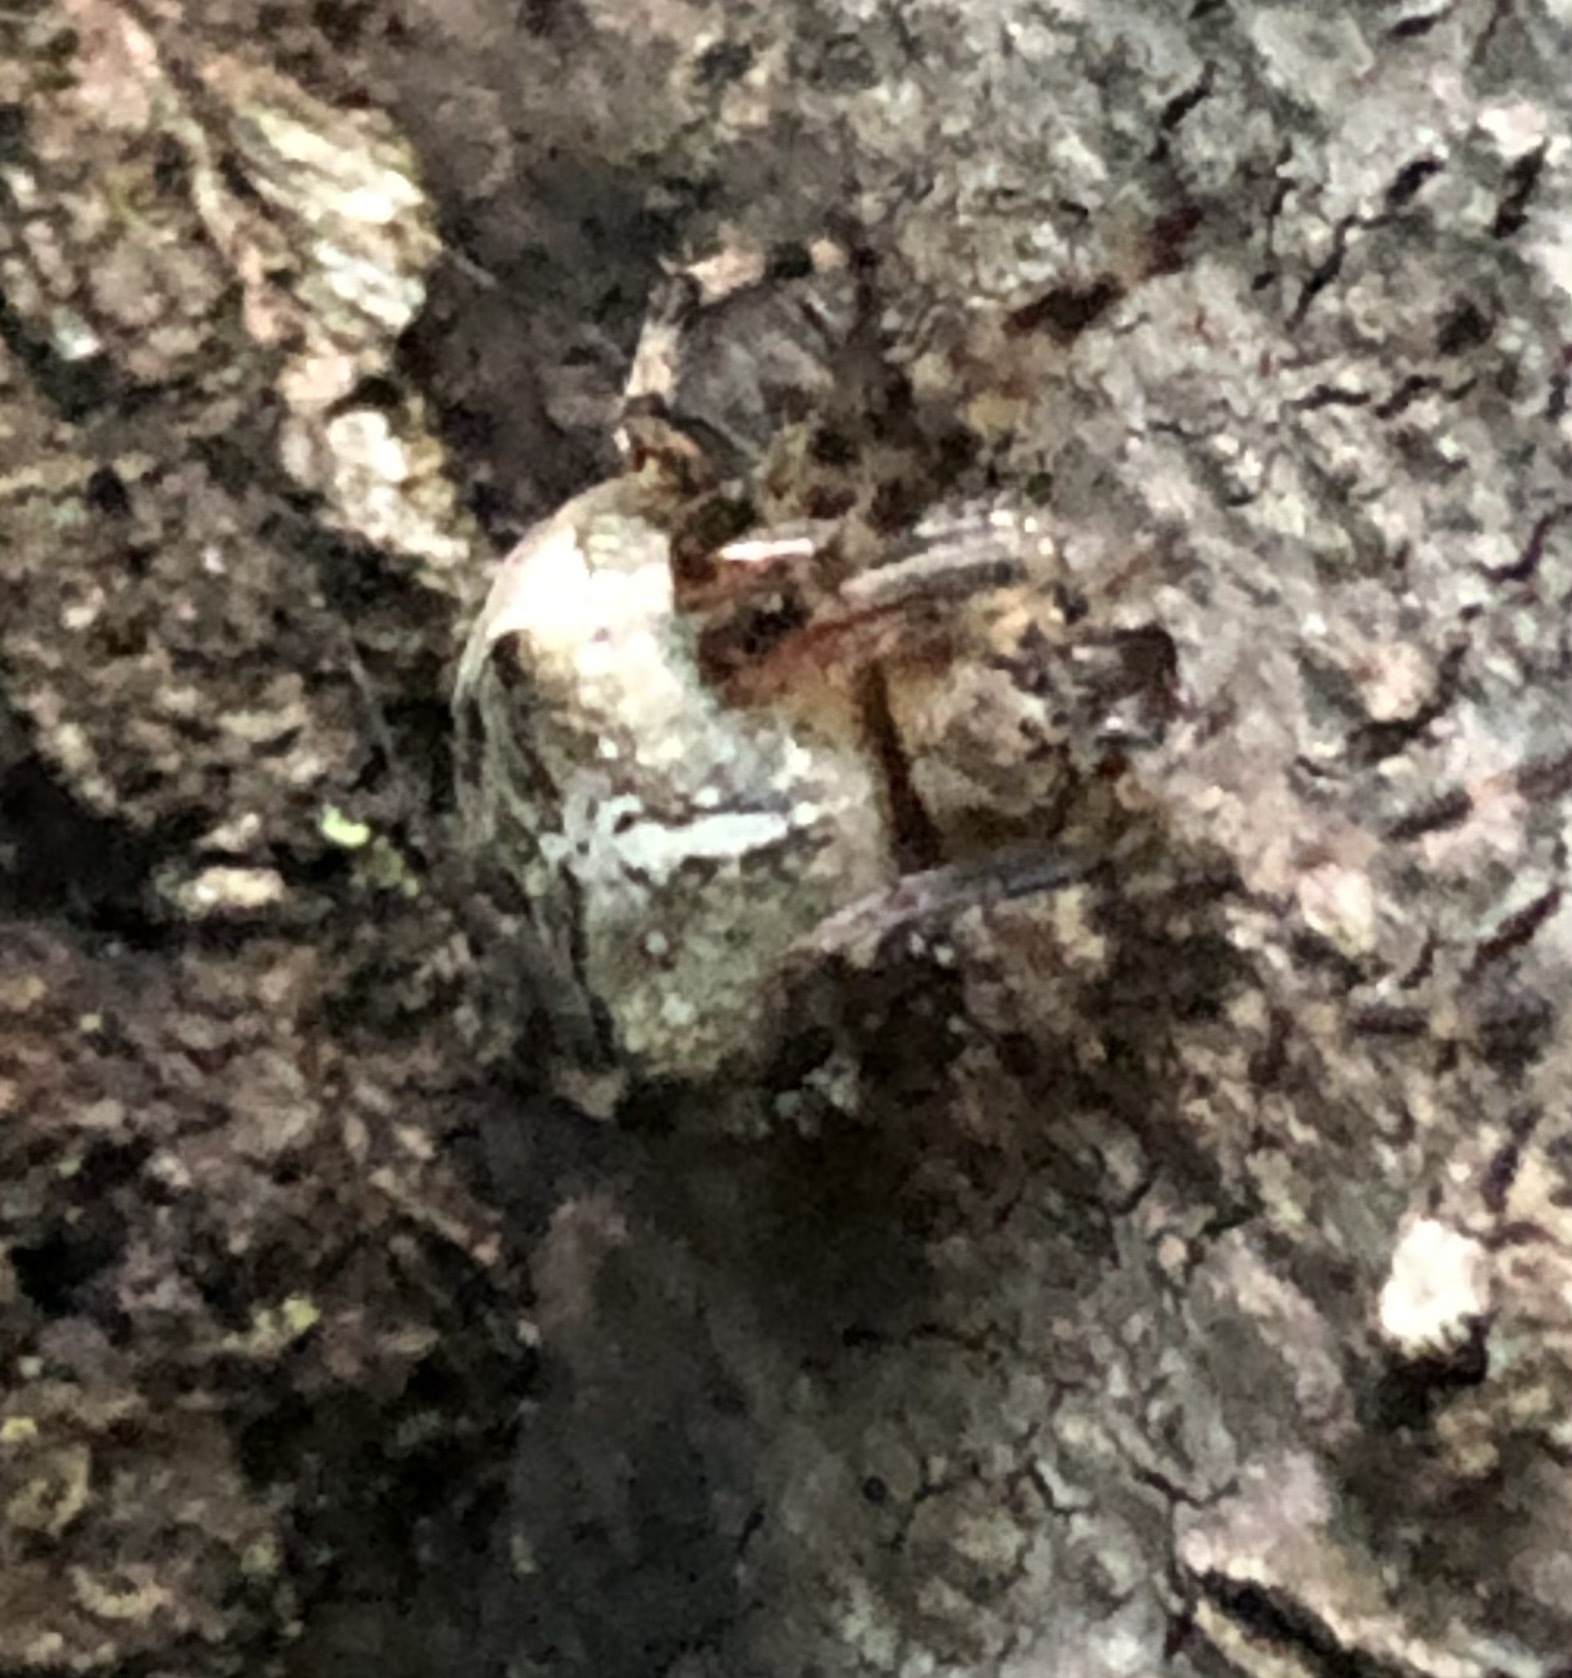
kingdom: Animalia
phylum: Arthropoda
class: Arachnida
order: Araneae
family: Araneidae
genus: Araneus
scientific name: Araneus nordmanni
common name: Nordmann's orbweaver
